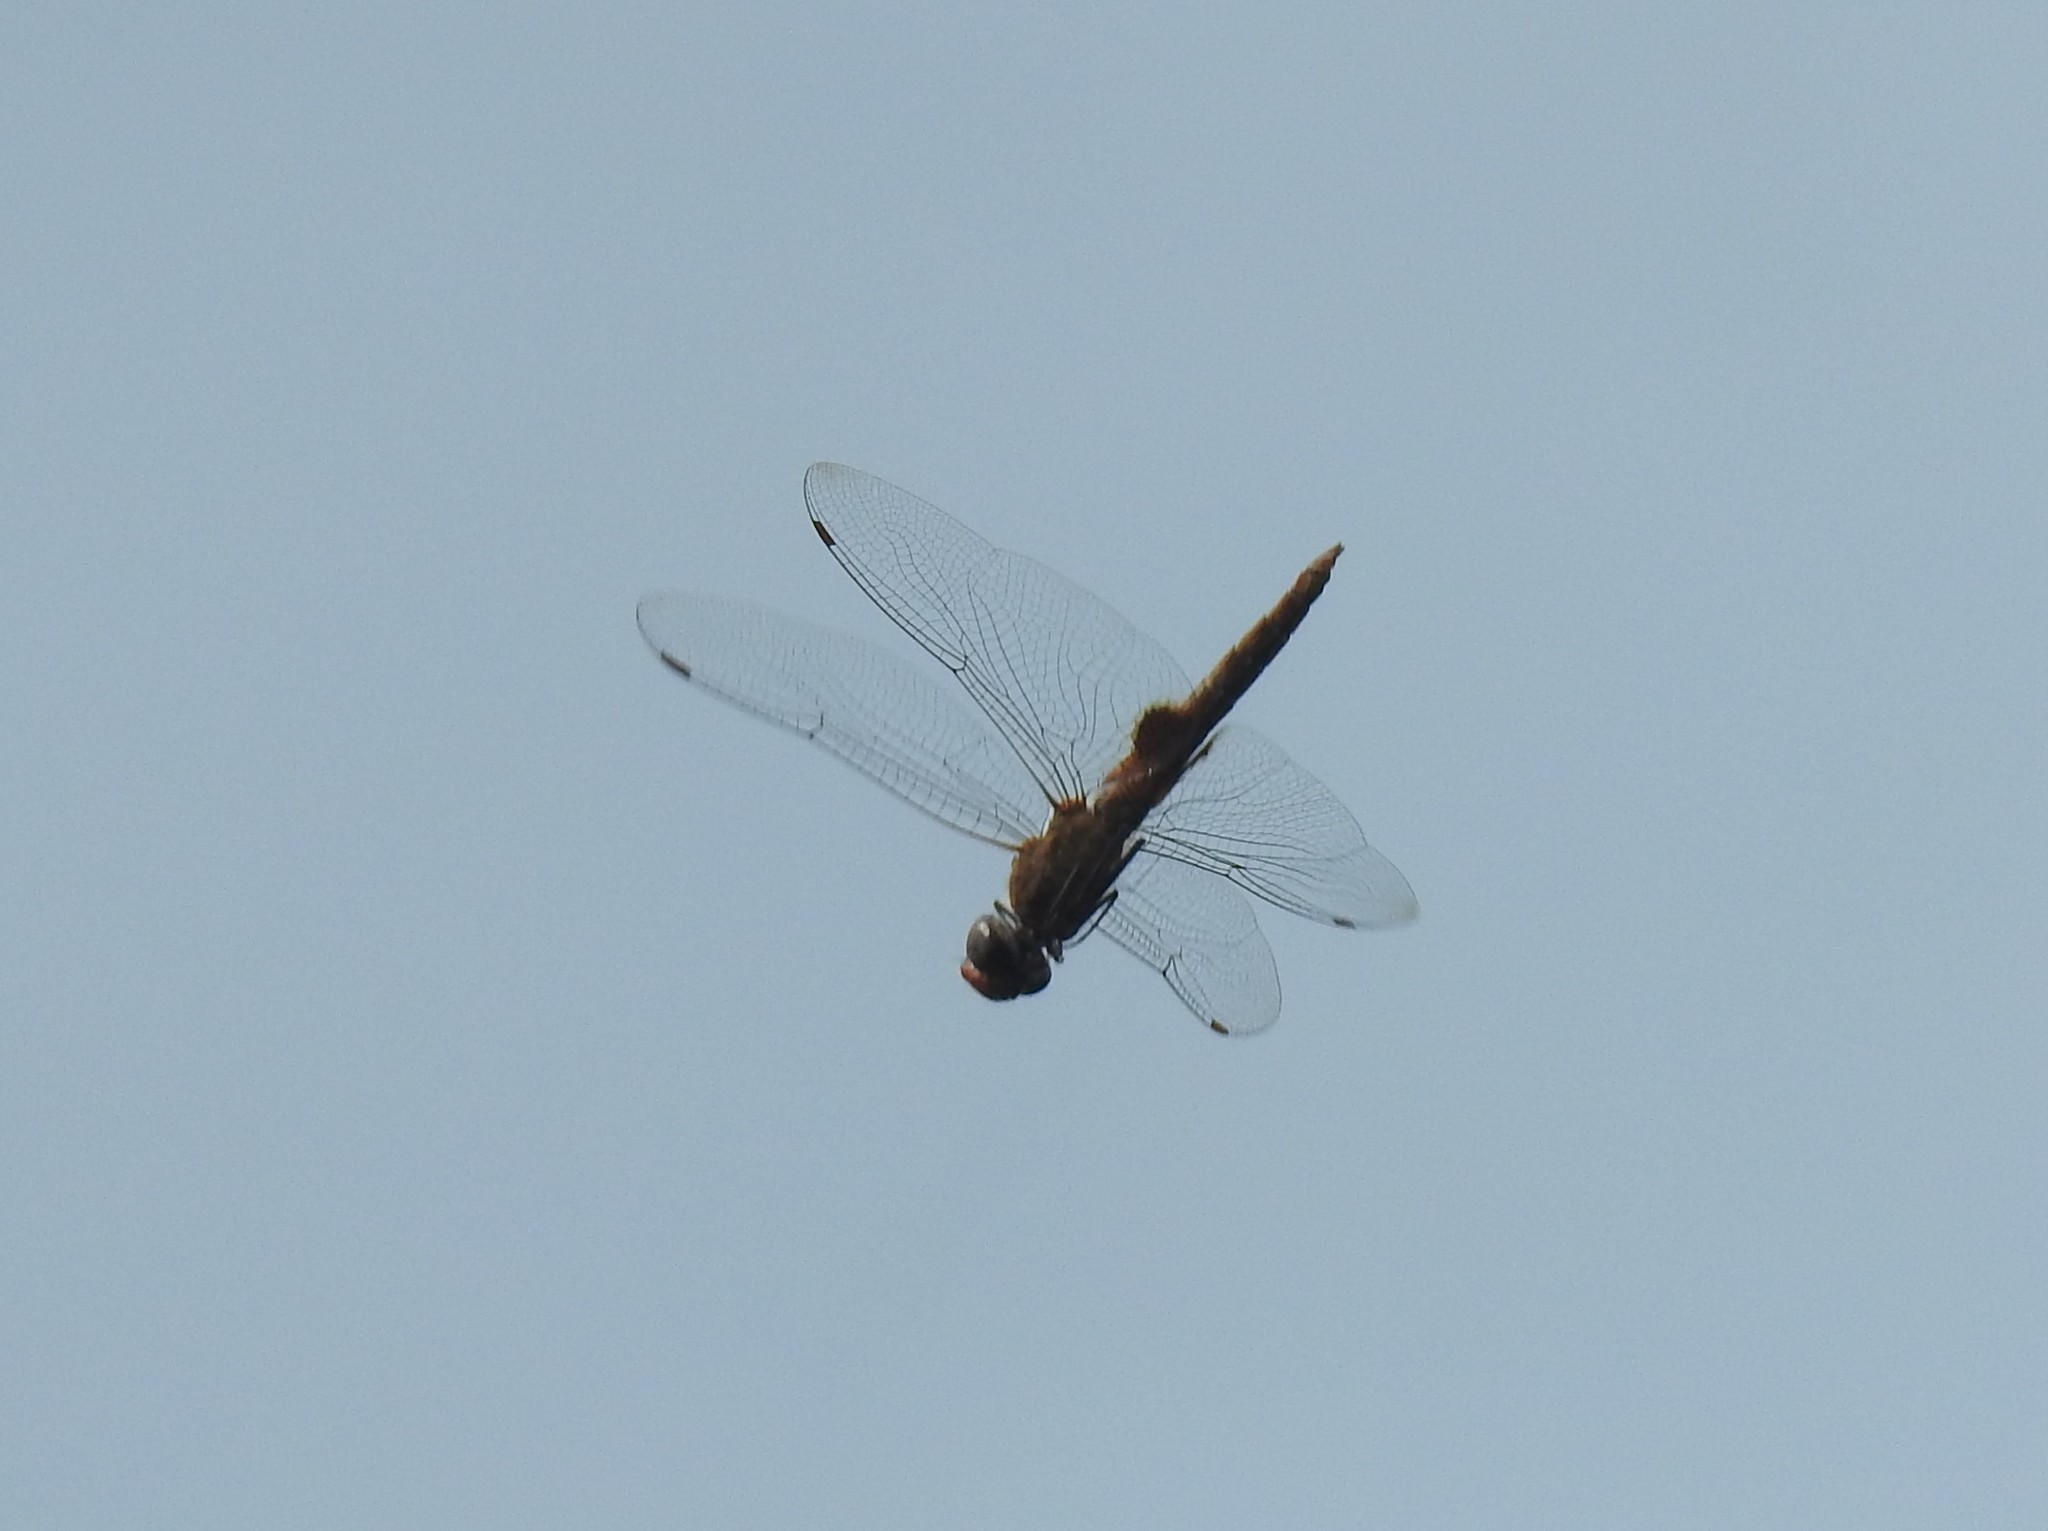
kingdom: Animalia
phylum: Arthropoda
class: Insecta
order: Odonata
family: Libellulidae
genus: Pantala
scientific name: Pantala hymenaea
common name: Spot-winged glider
